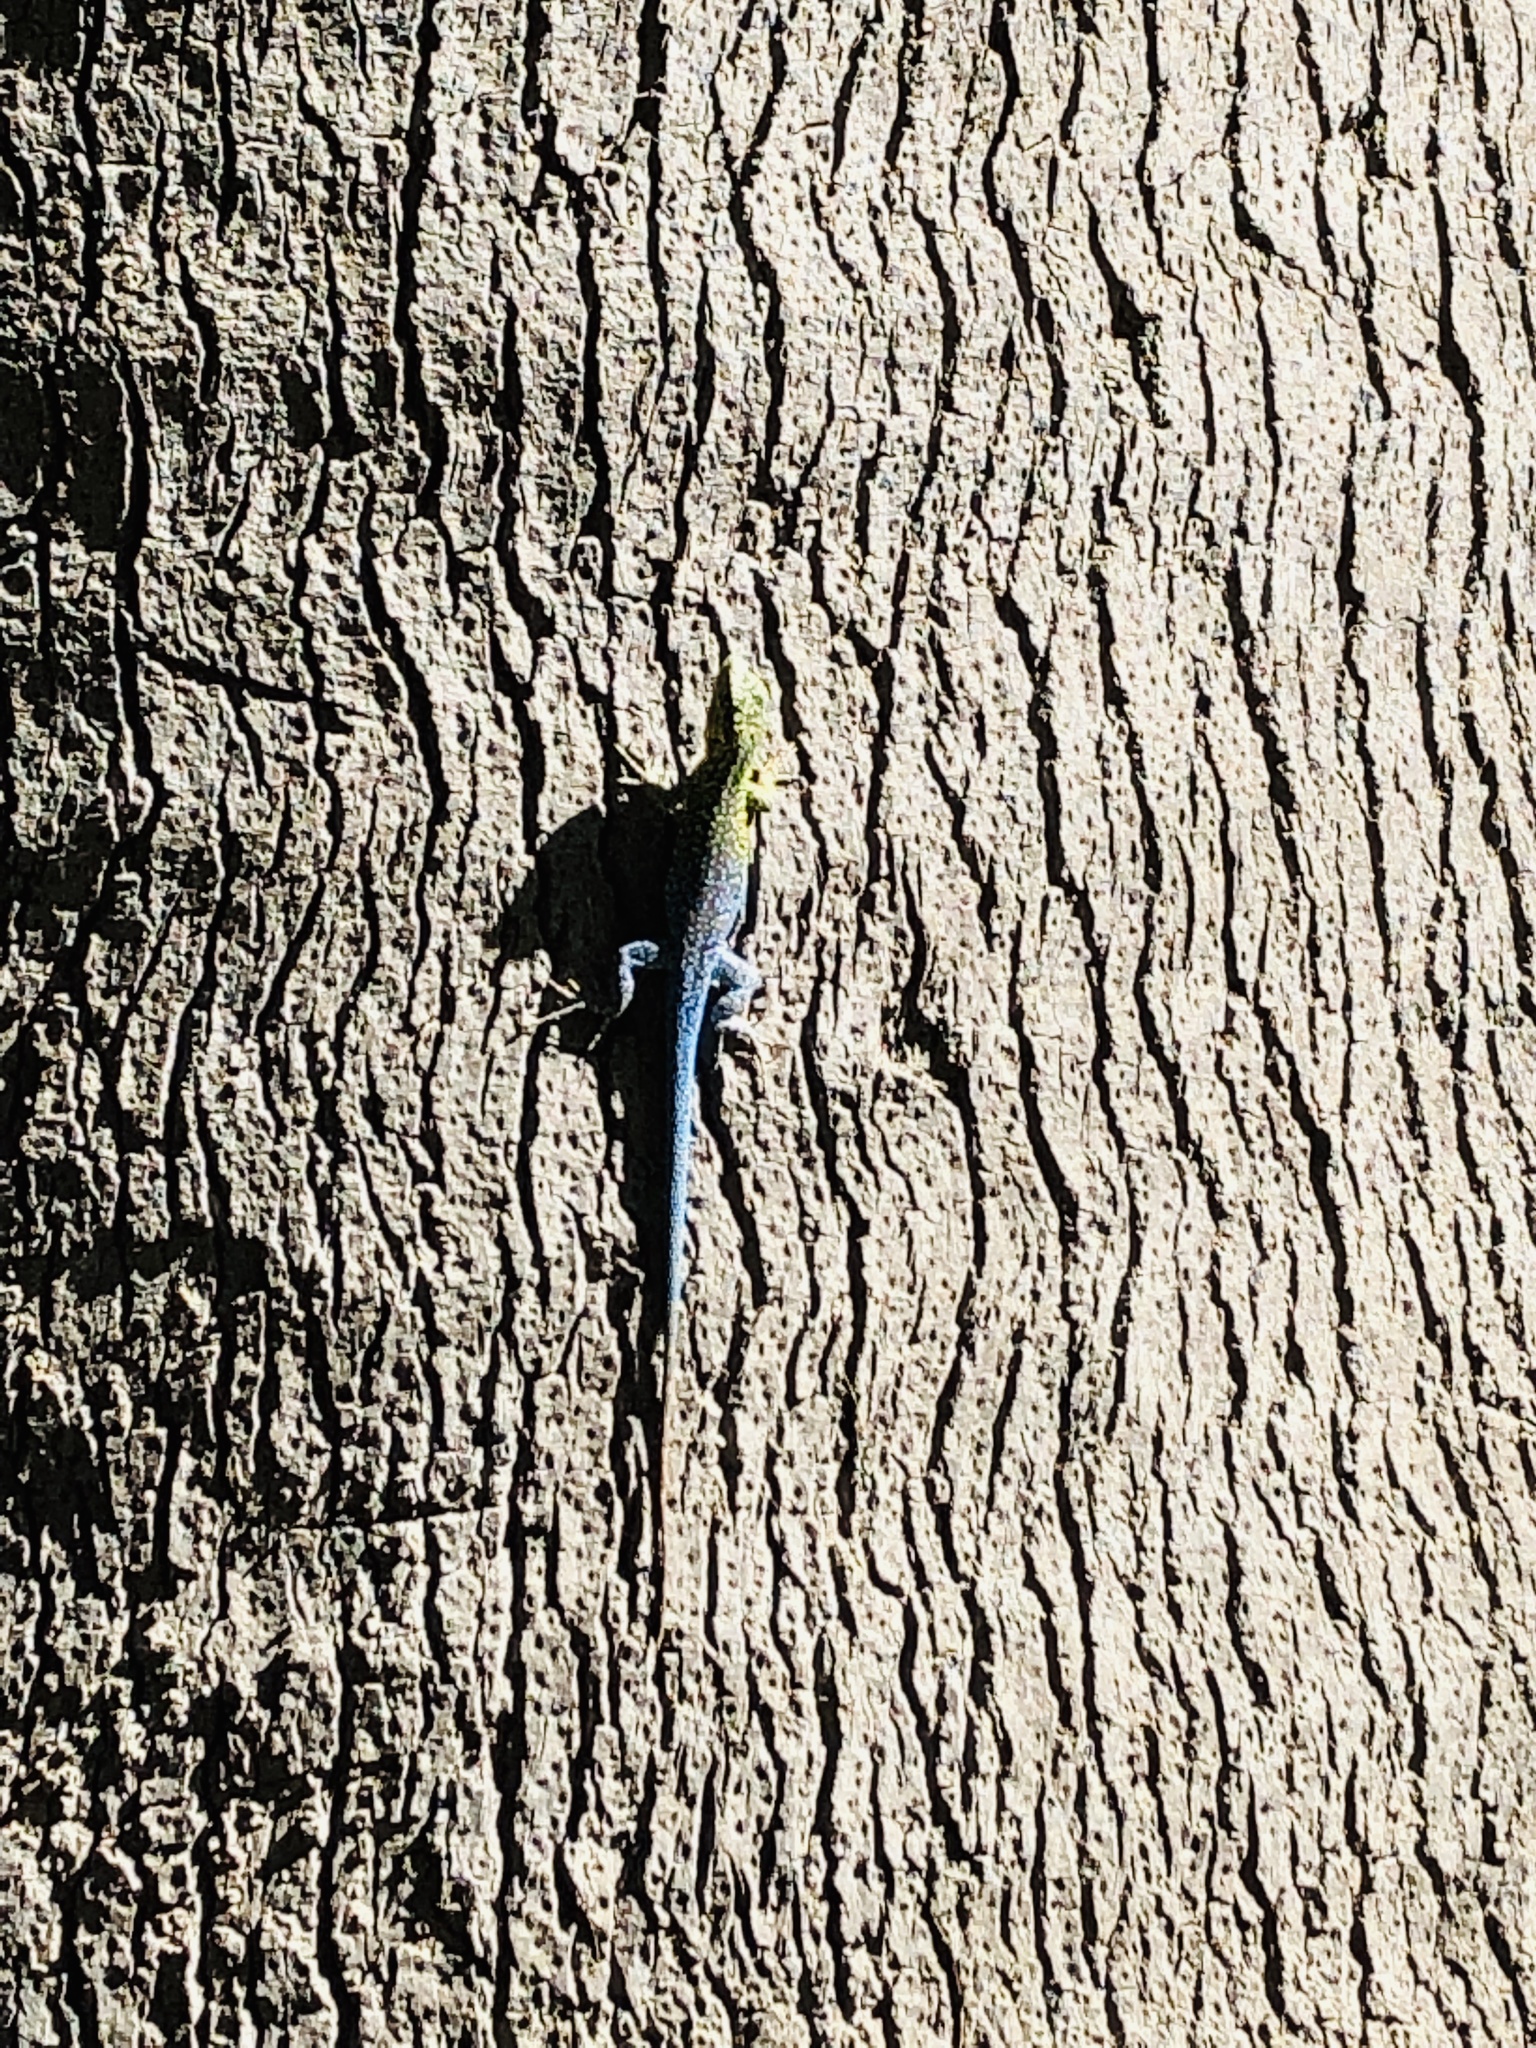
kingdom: Animalia
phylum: Chordata
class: Squamata
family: Liolaemidae
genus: Liolaemus
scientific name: Liolaemus tenuis
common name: Thin tree iguana
